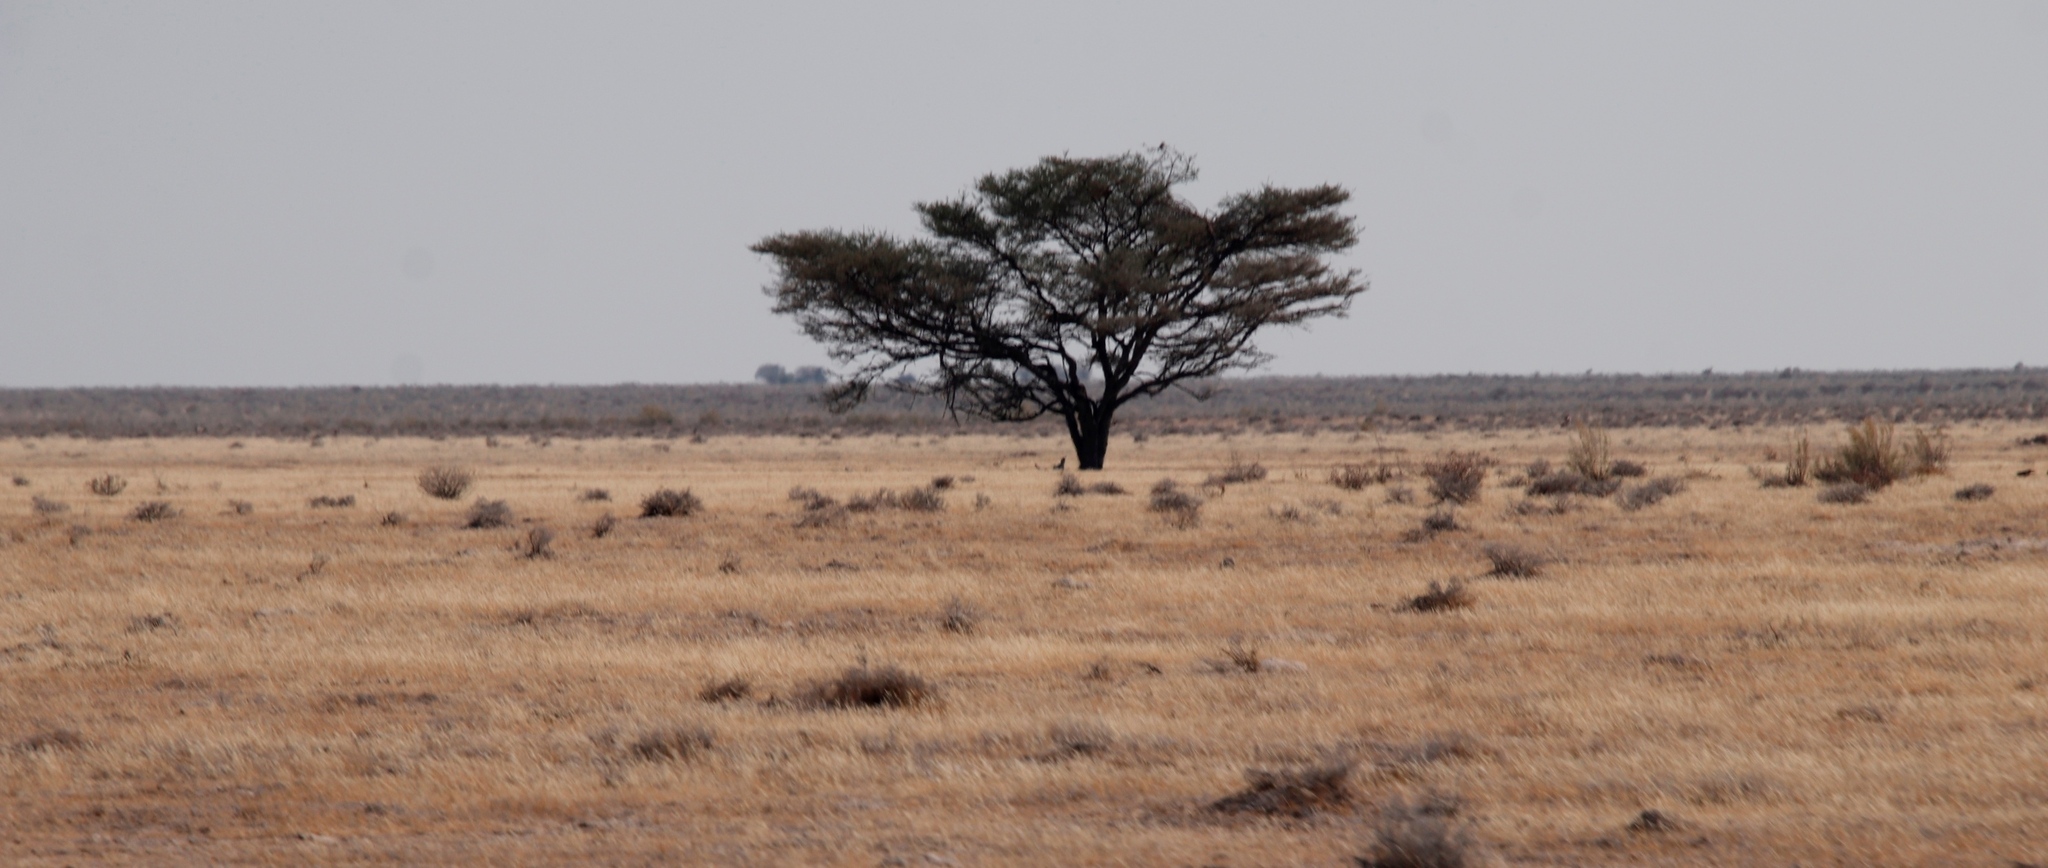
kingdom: Plantae
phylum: Tracheophyta
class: Magnoliopsida
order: Fabales
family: Fabaceae
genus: Vachellia
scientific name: Vachellia tortilis
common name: Umbrella thorn acacia
